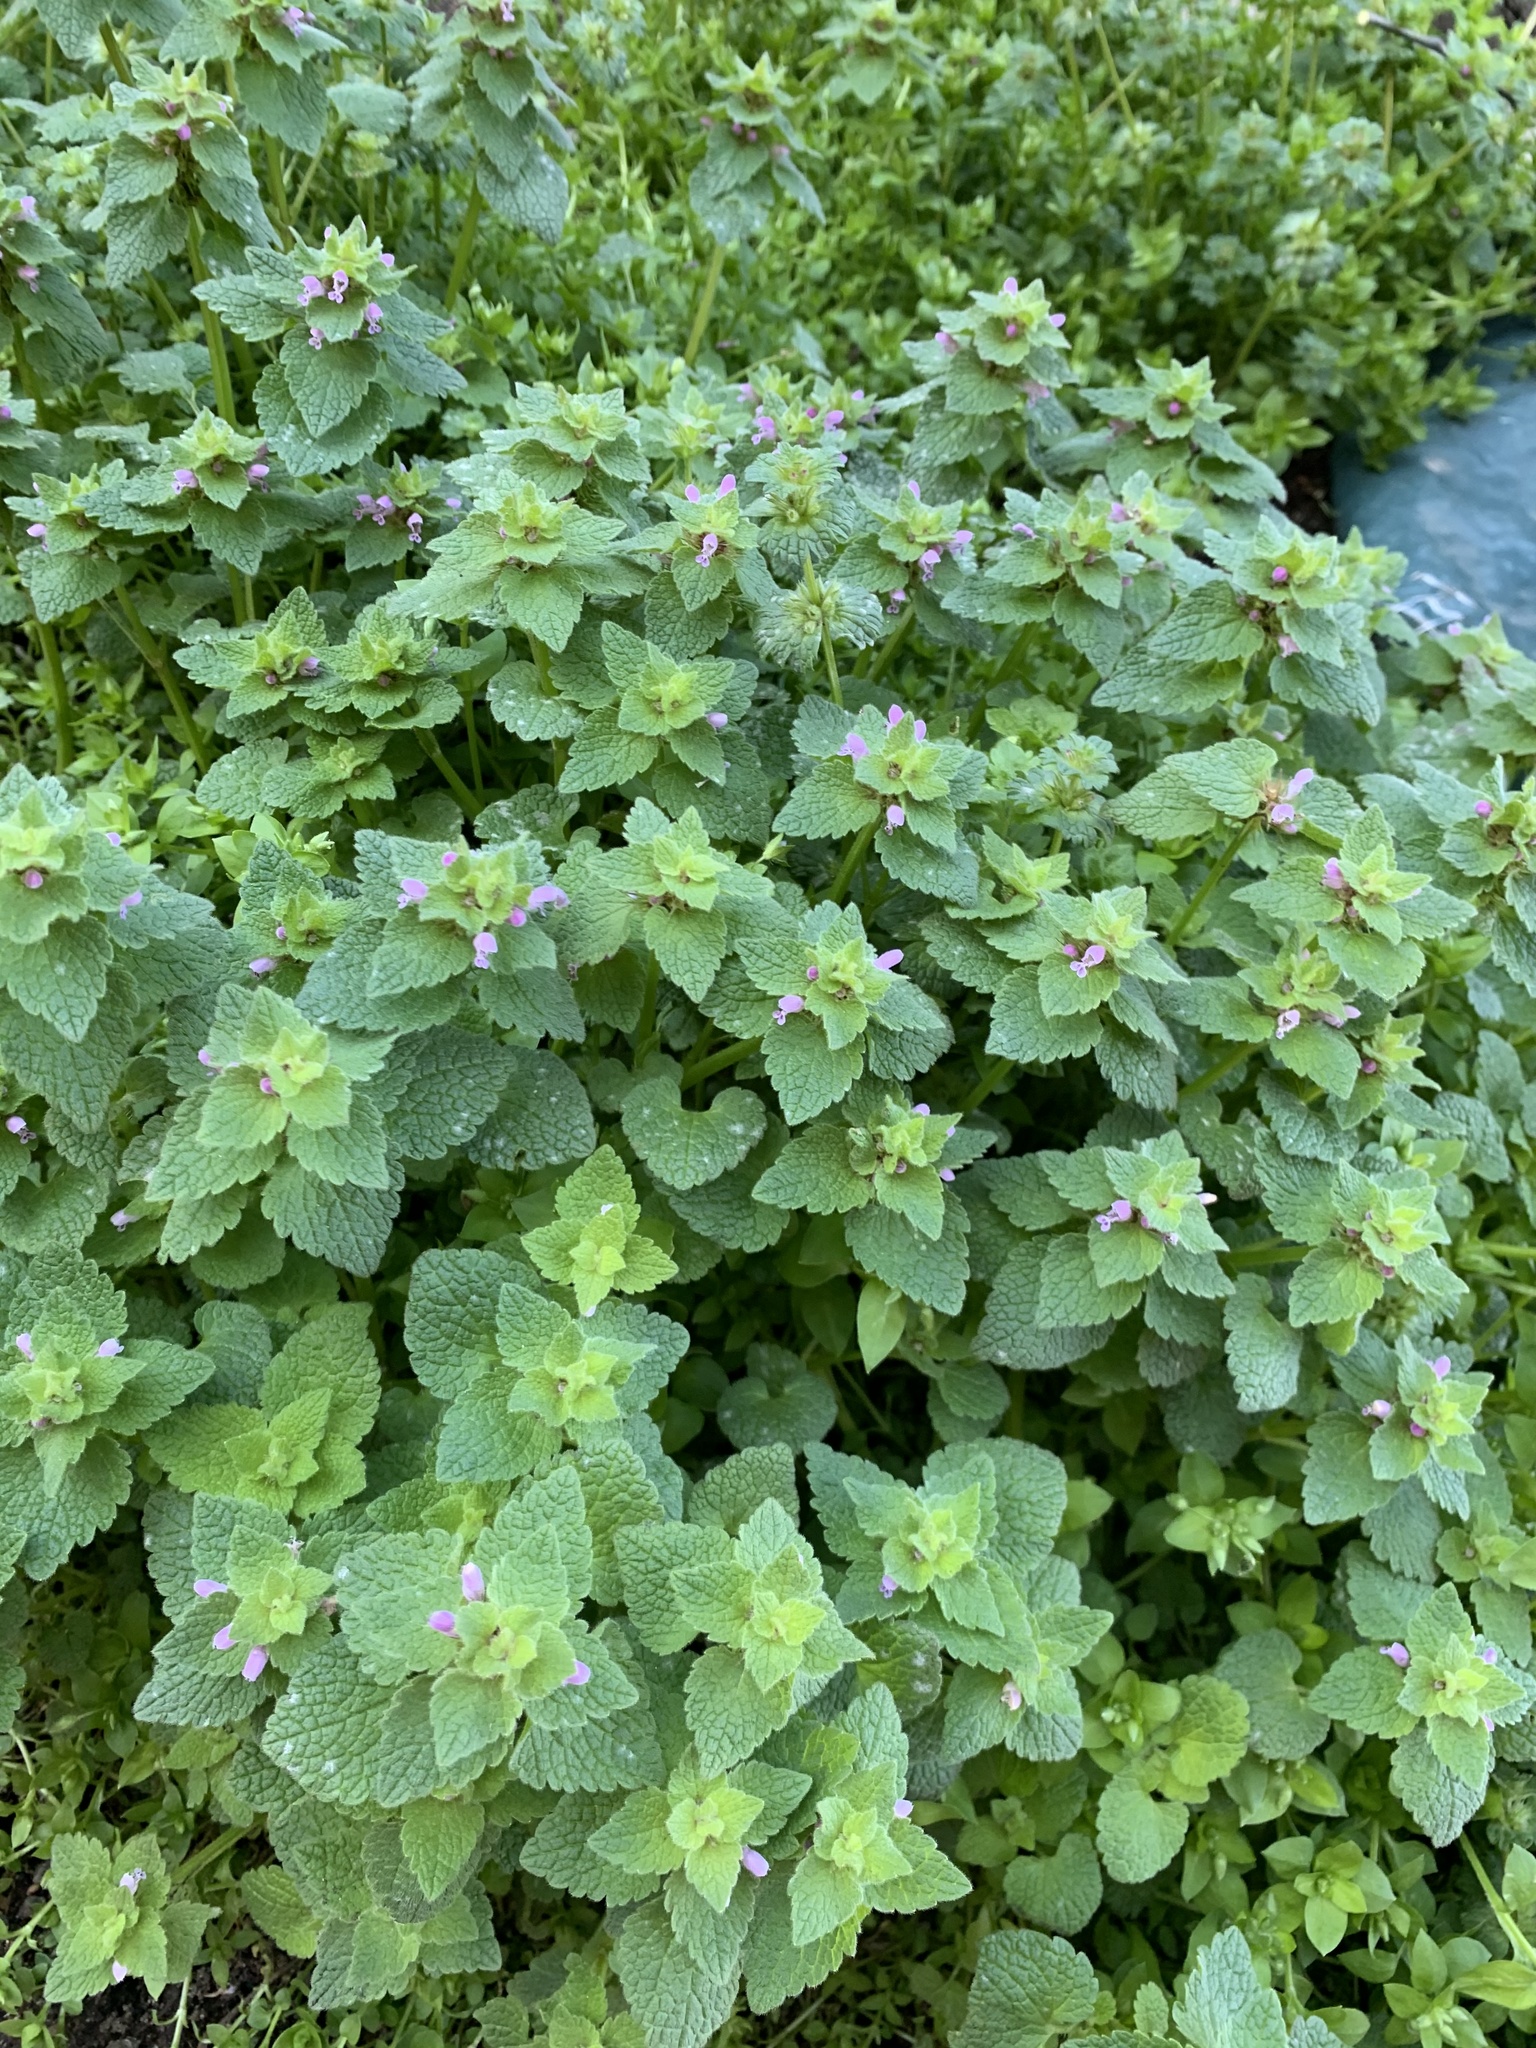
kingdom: Plantae
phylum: Tracheophyta
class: Magnoliopsida
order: Lamiales
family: Lamiaceae
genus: Lamium
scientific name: Lamium purpureum
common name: Red dead-nettle
